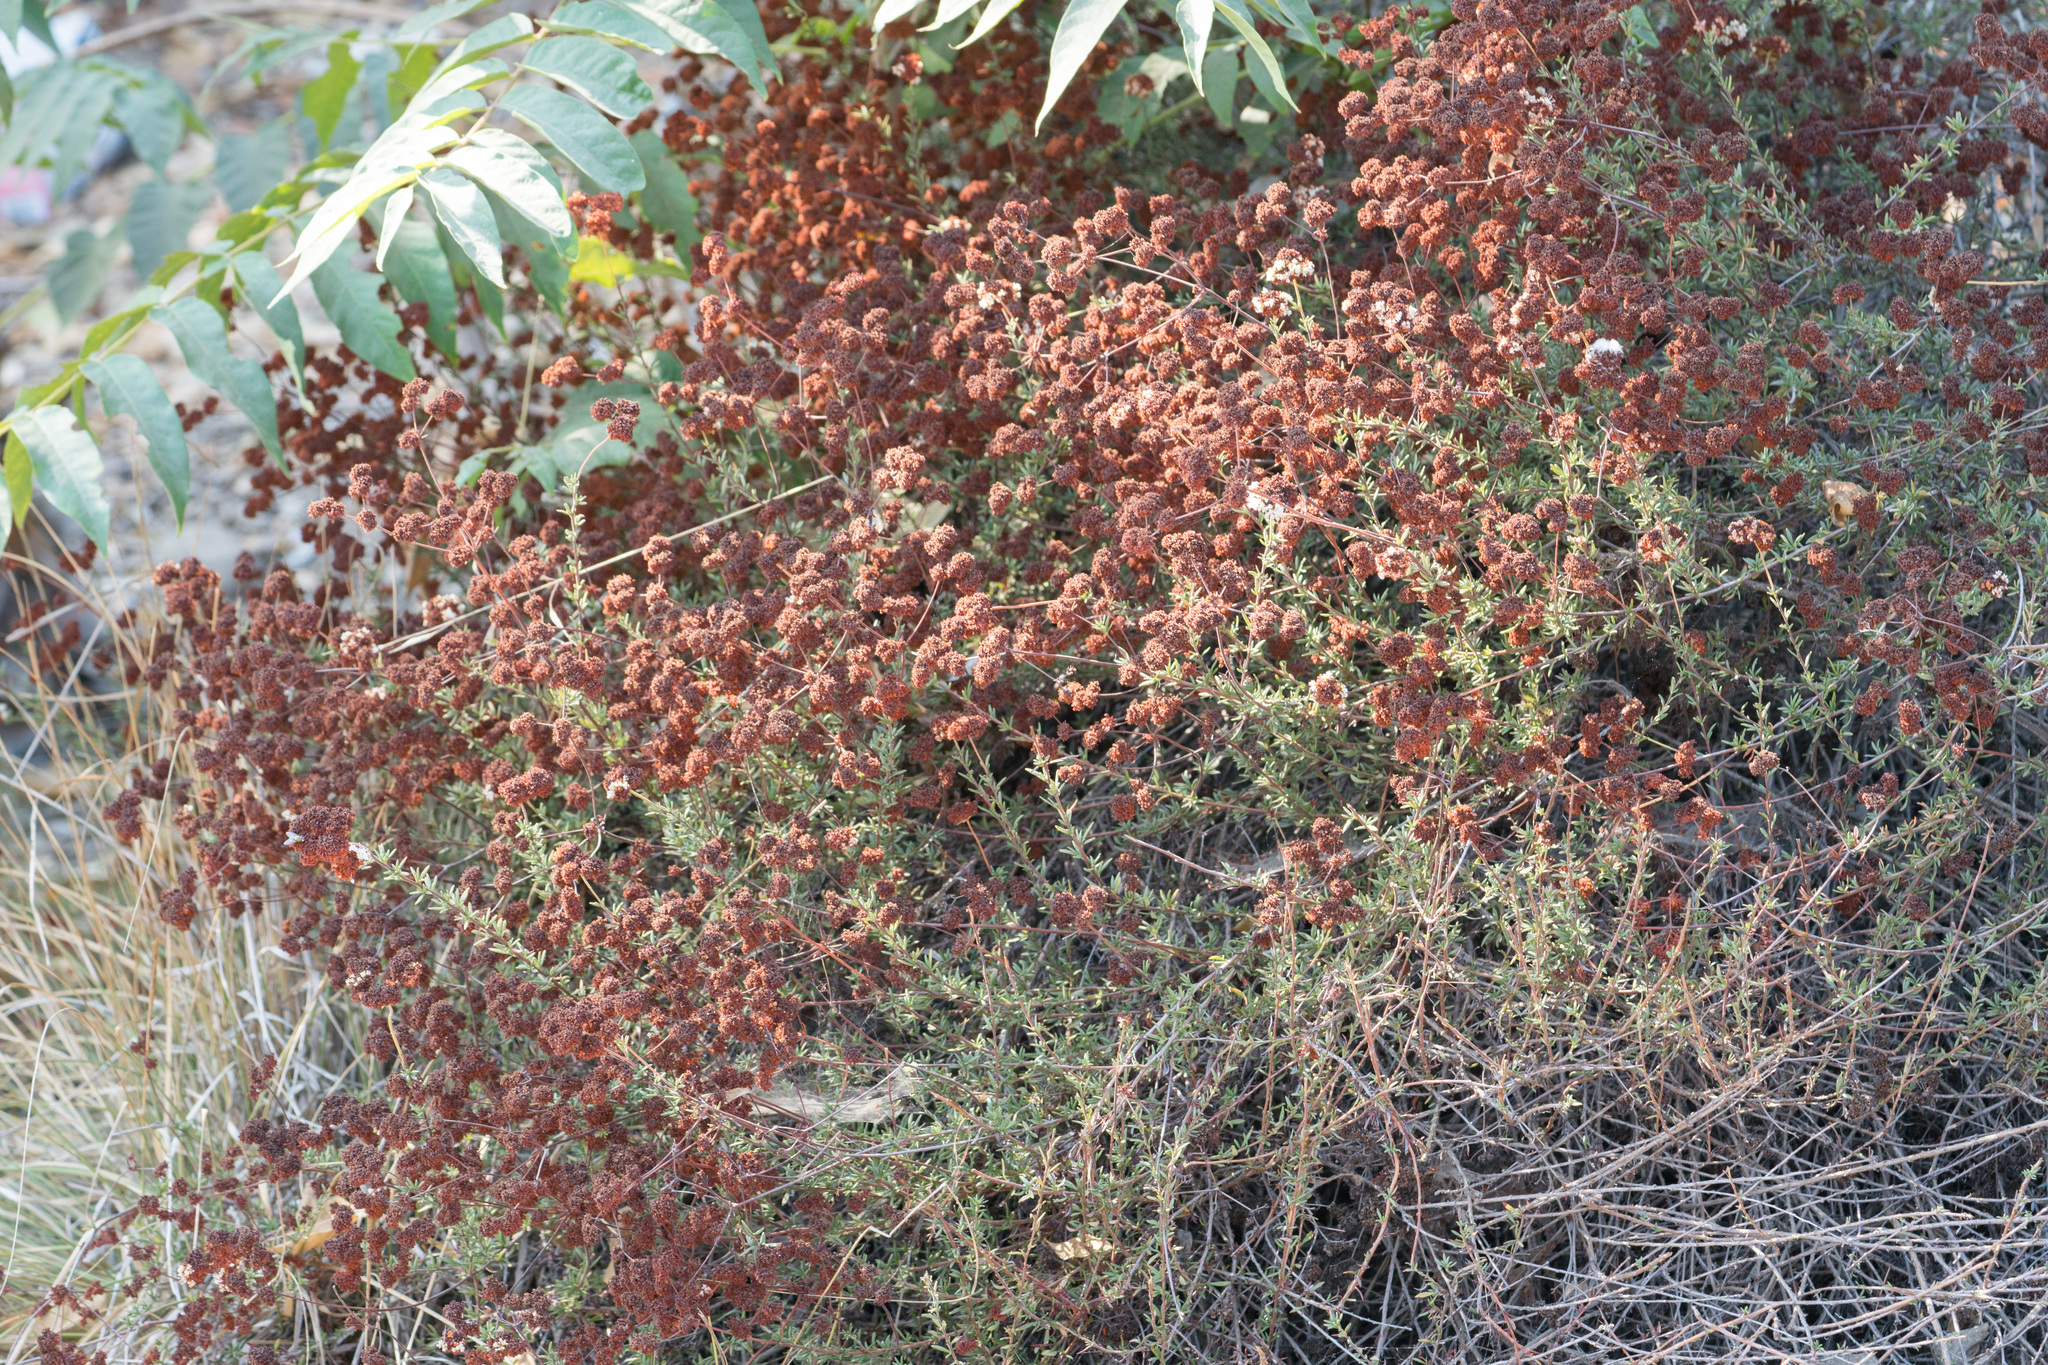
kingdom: Plantae
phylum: Tracheophyta
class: Magnoliopsida
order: Caryophyllales
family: Polygonaceae
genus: Eriogonum
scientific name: Eriogonum fasciculatum
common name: California wild buckwheat
